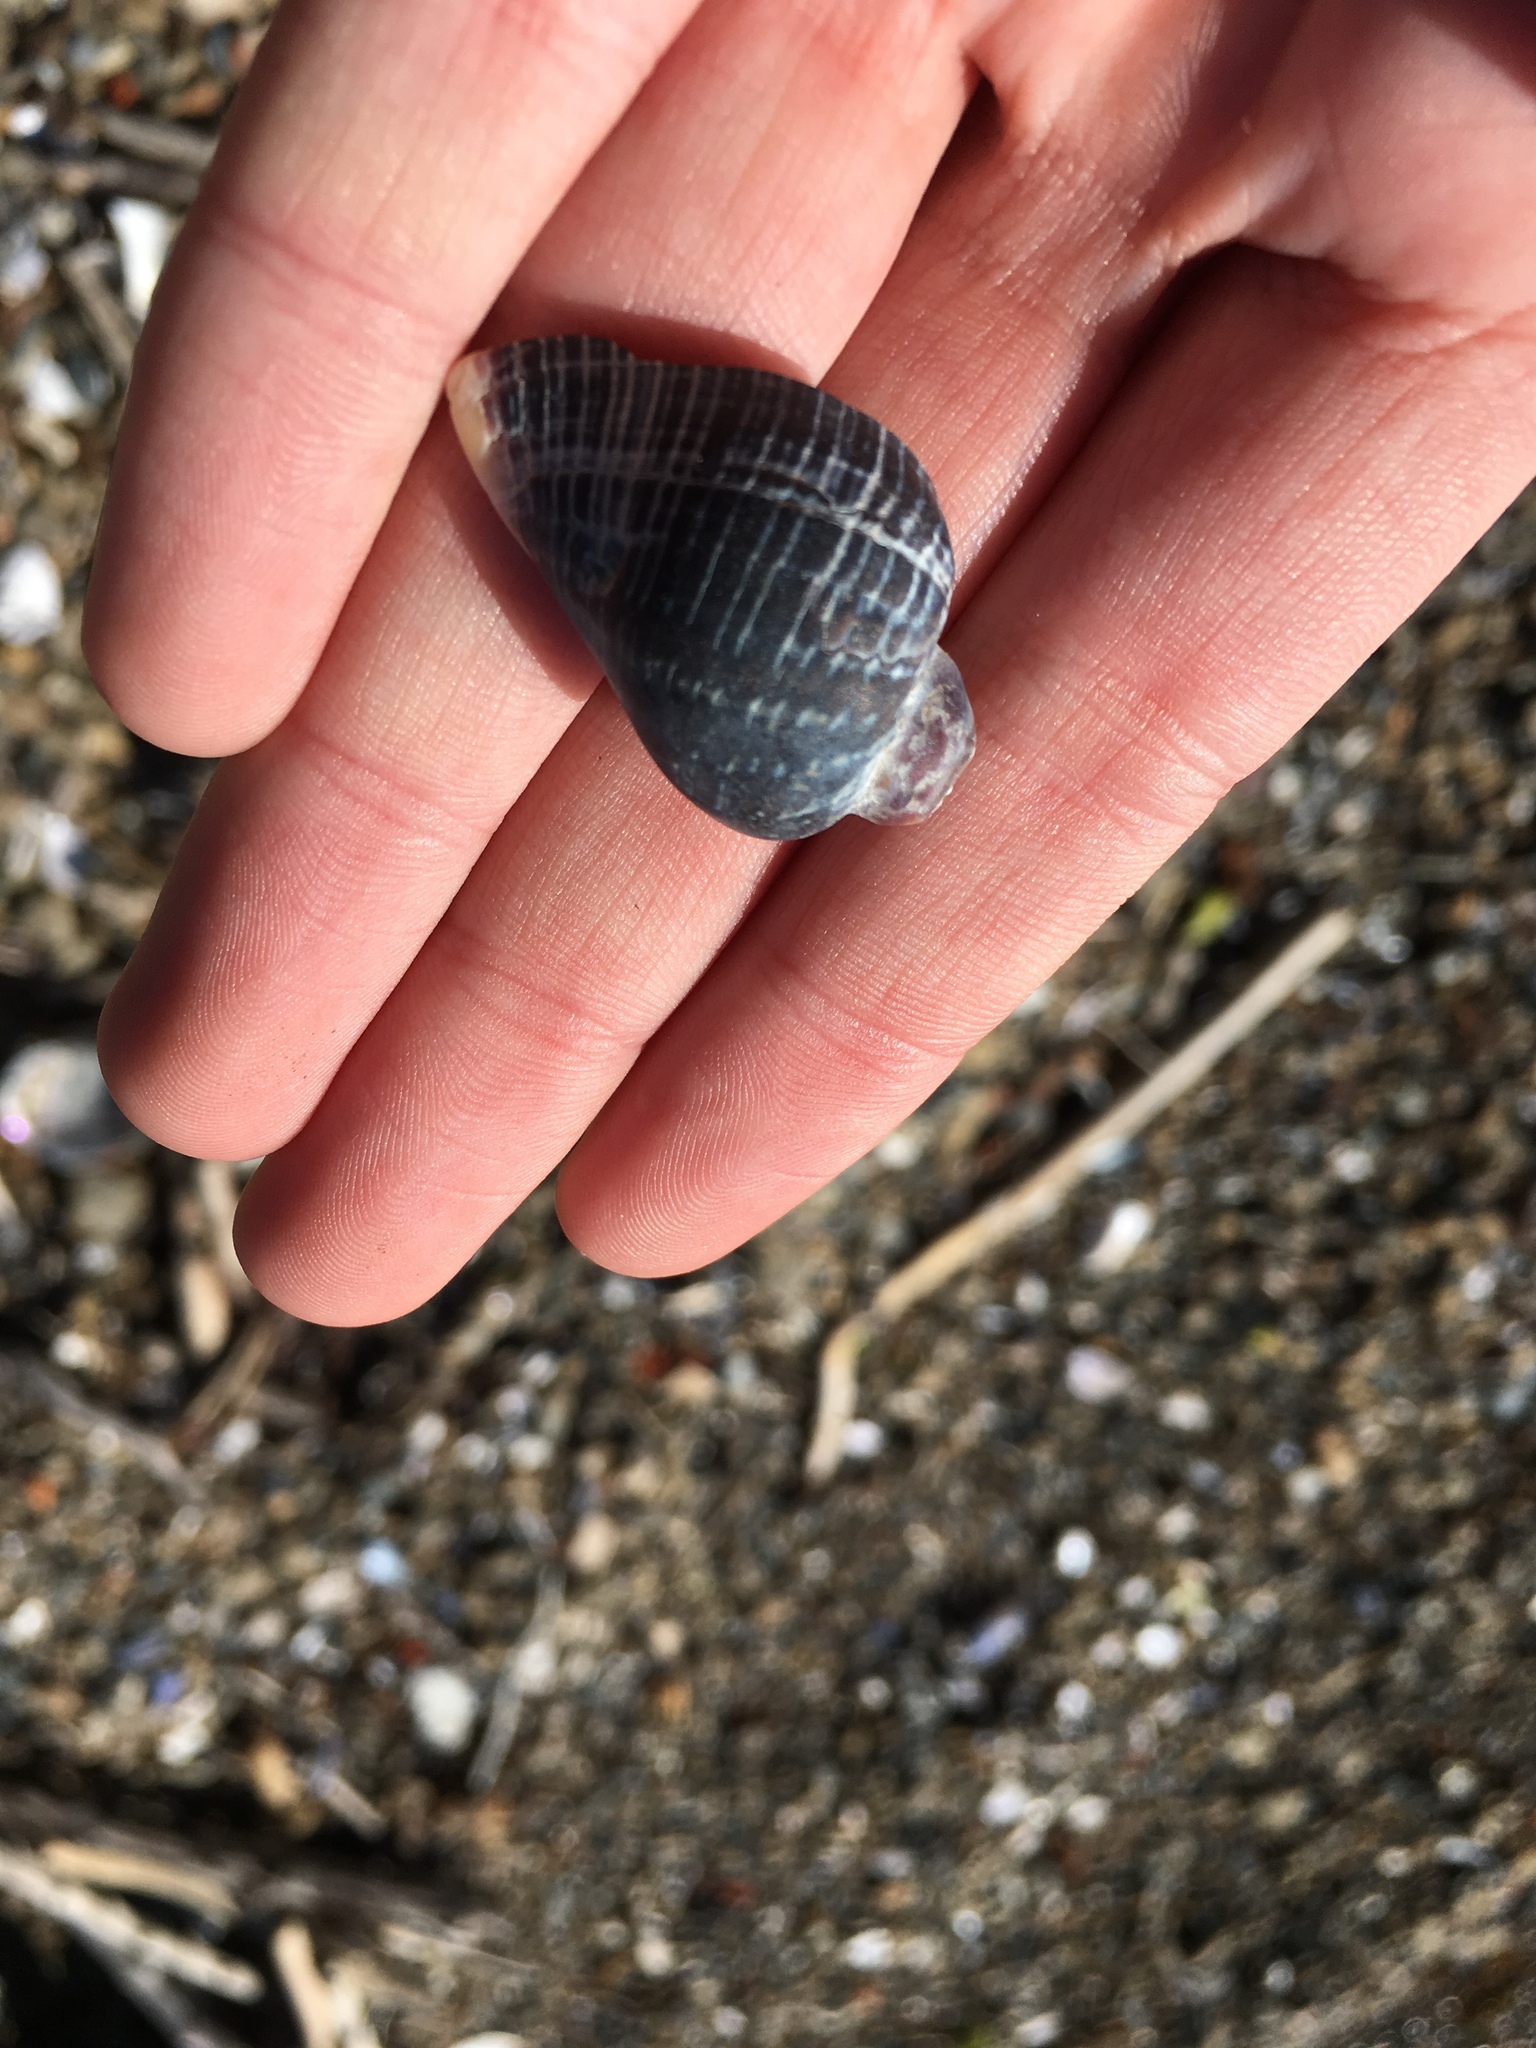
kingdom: Animalia
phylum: Mollusca
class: Gastropoda
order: Neogastropoda
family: Muricidae
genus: Haustrum
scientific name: Haustrum haustorium
